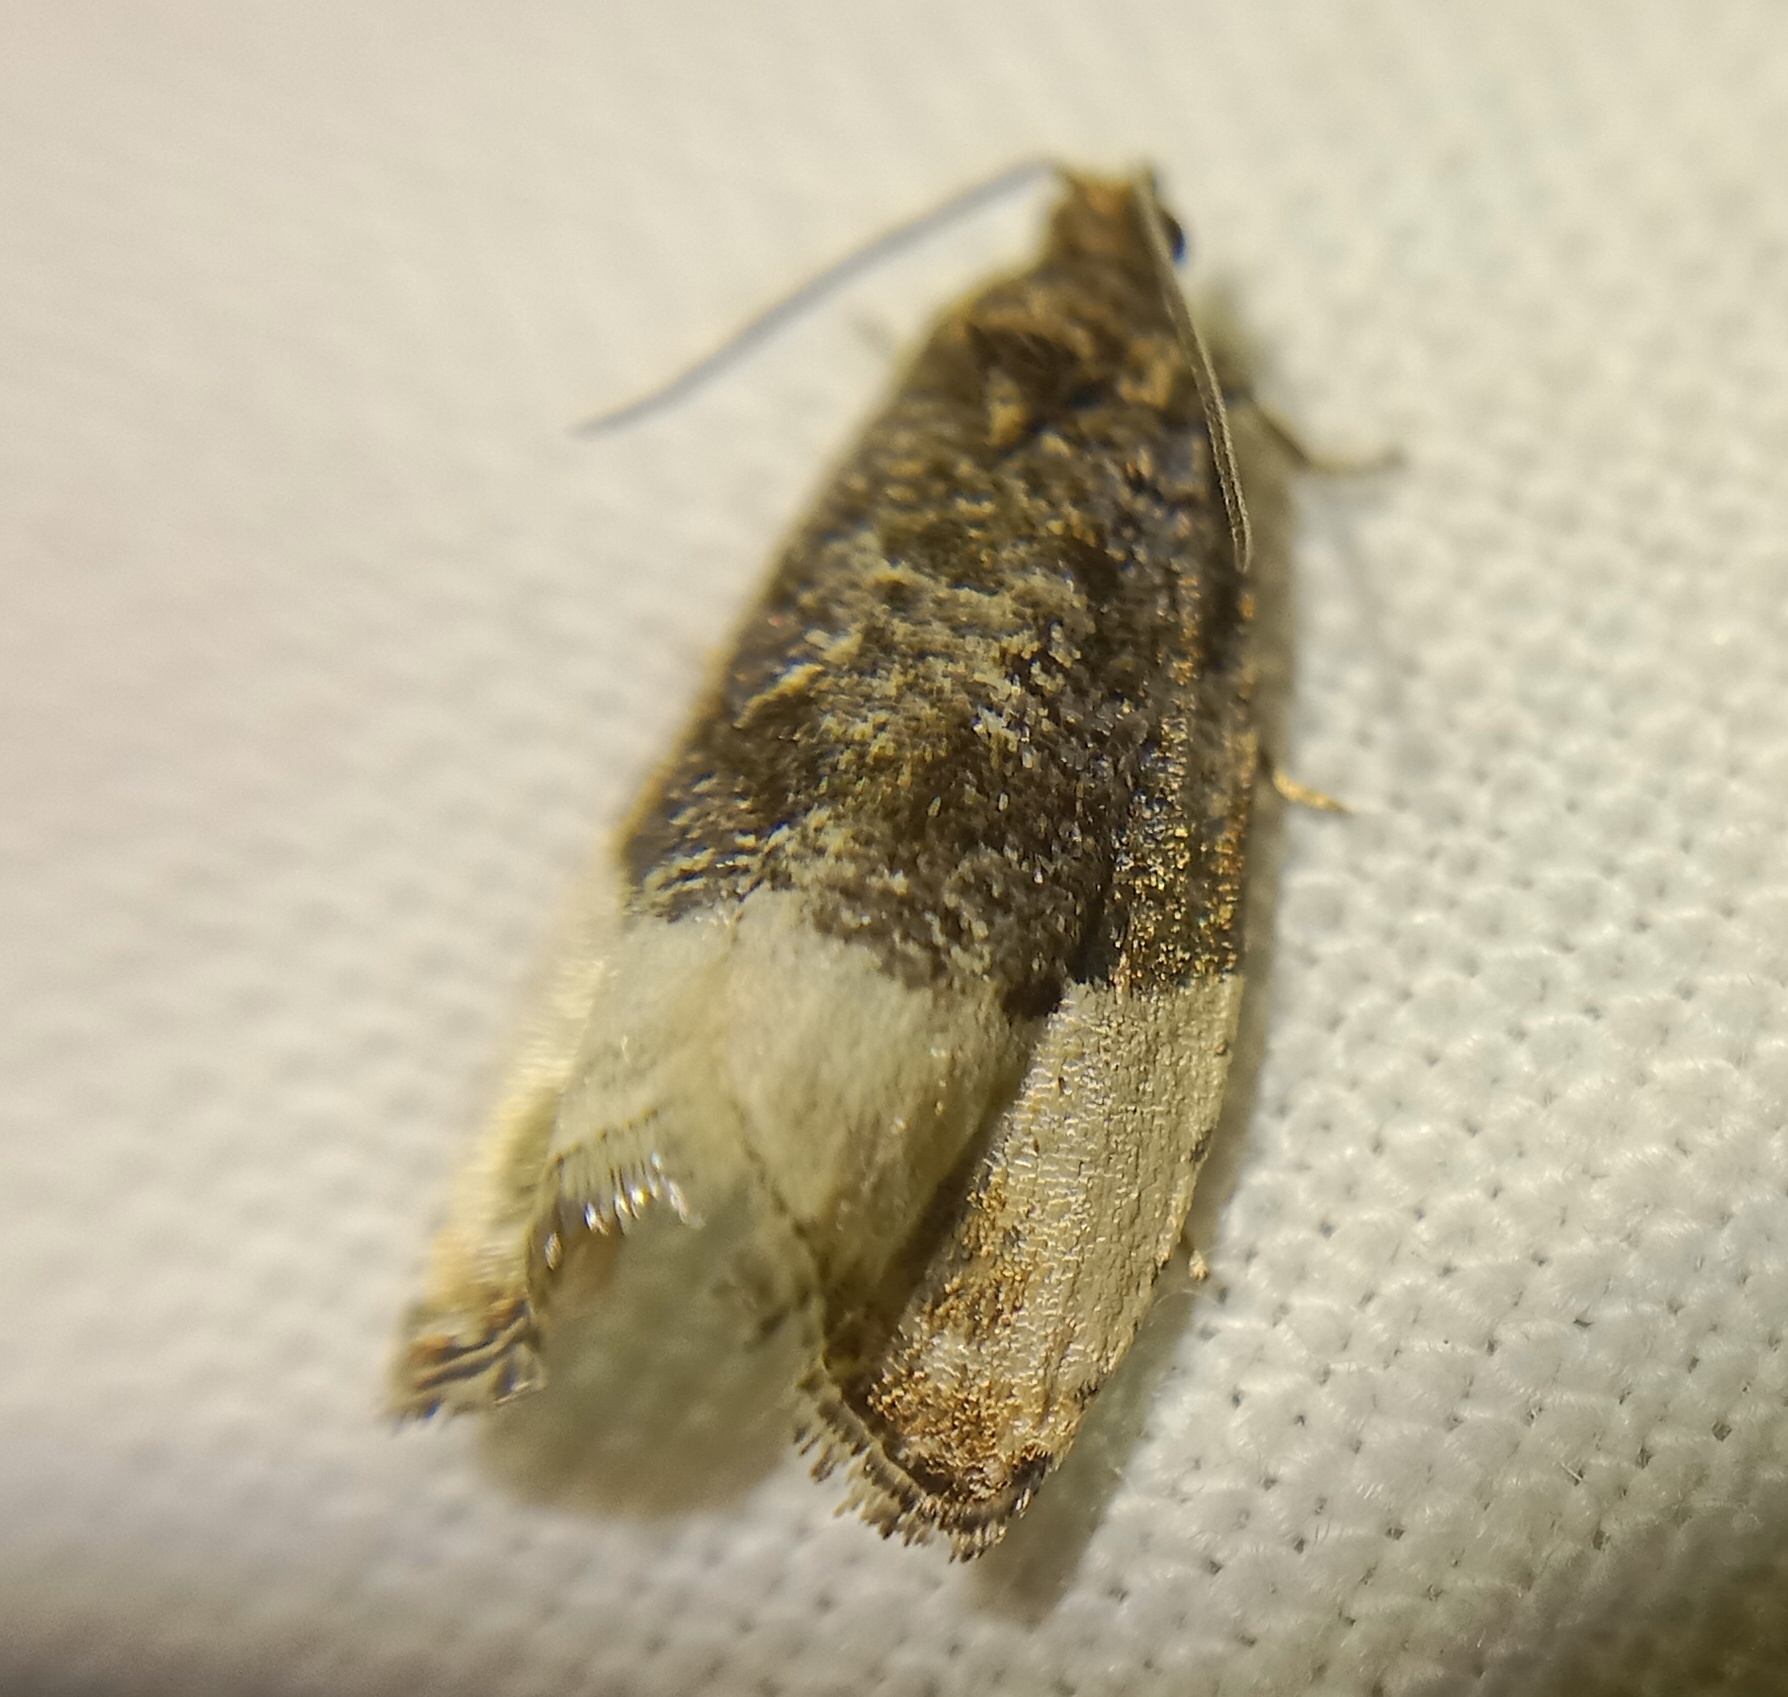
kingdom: Animalia
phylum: Arthropoda
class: Insecta
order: Lepidoptera
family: Tortricidae
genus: Hedya
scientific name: Hedya pruniana
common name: Plum tortrix
